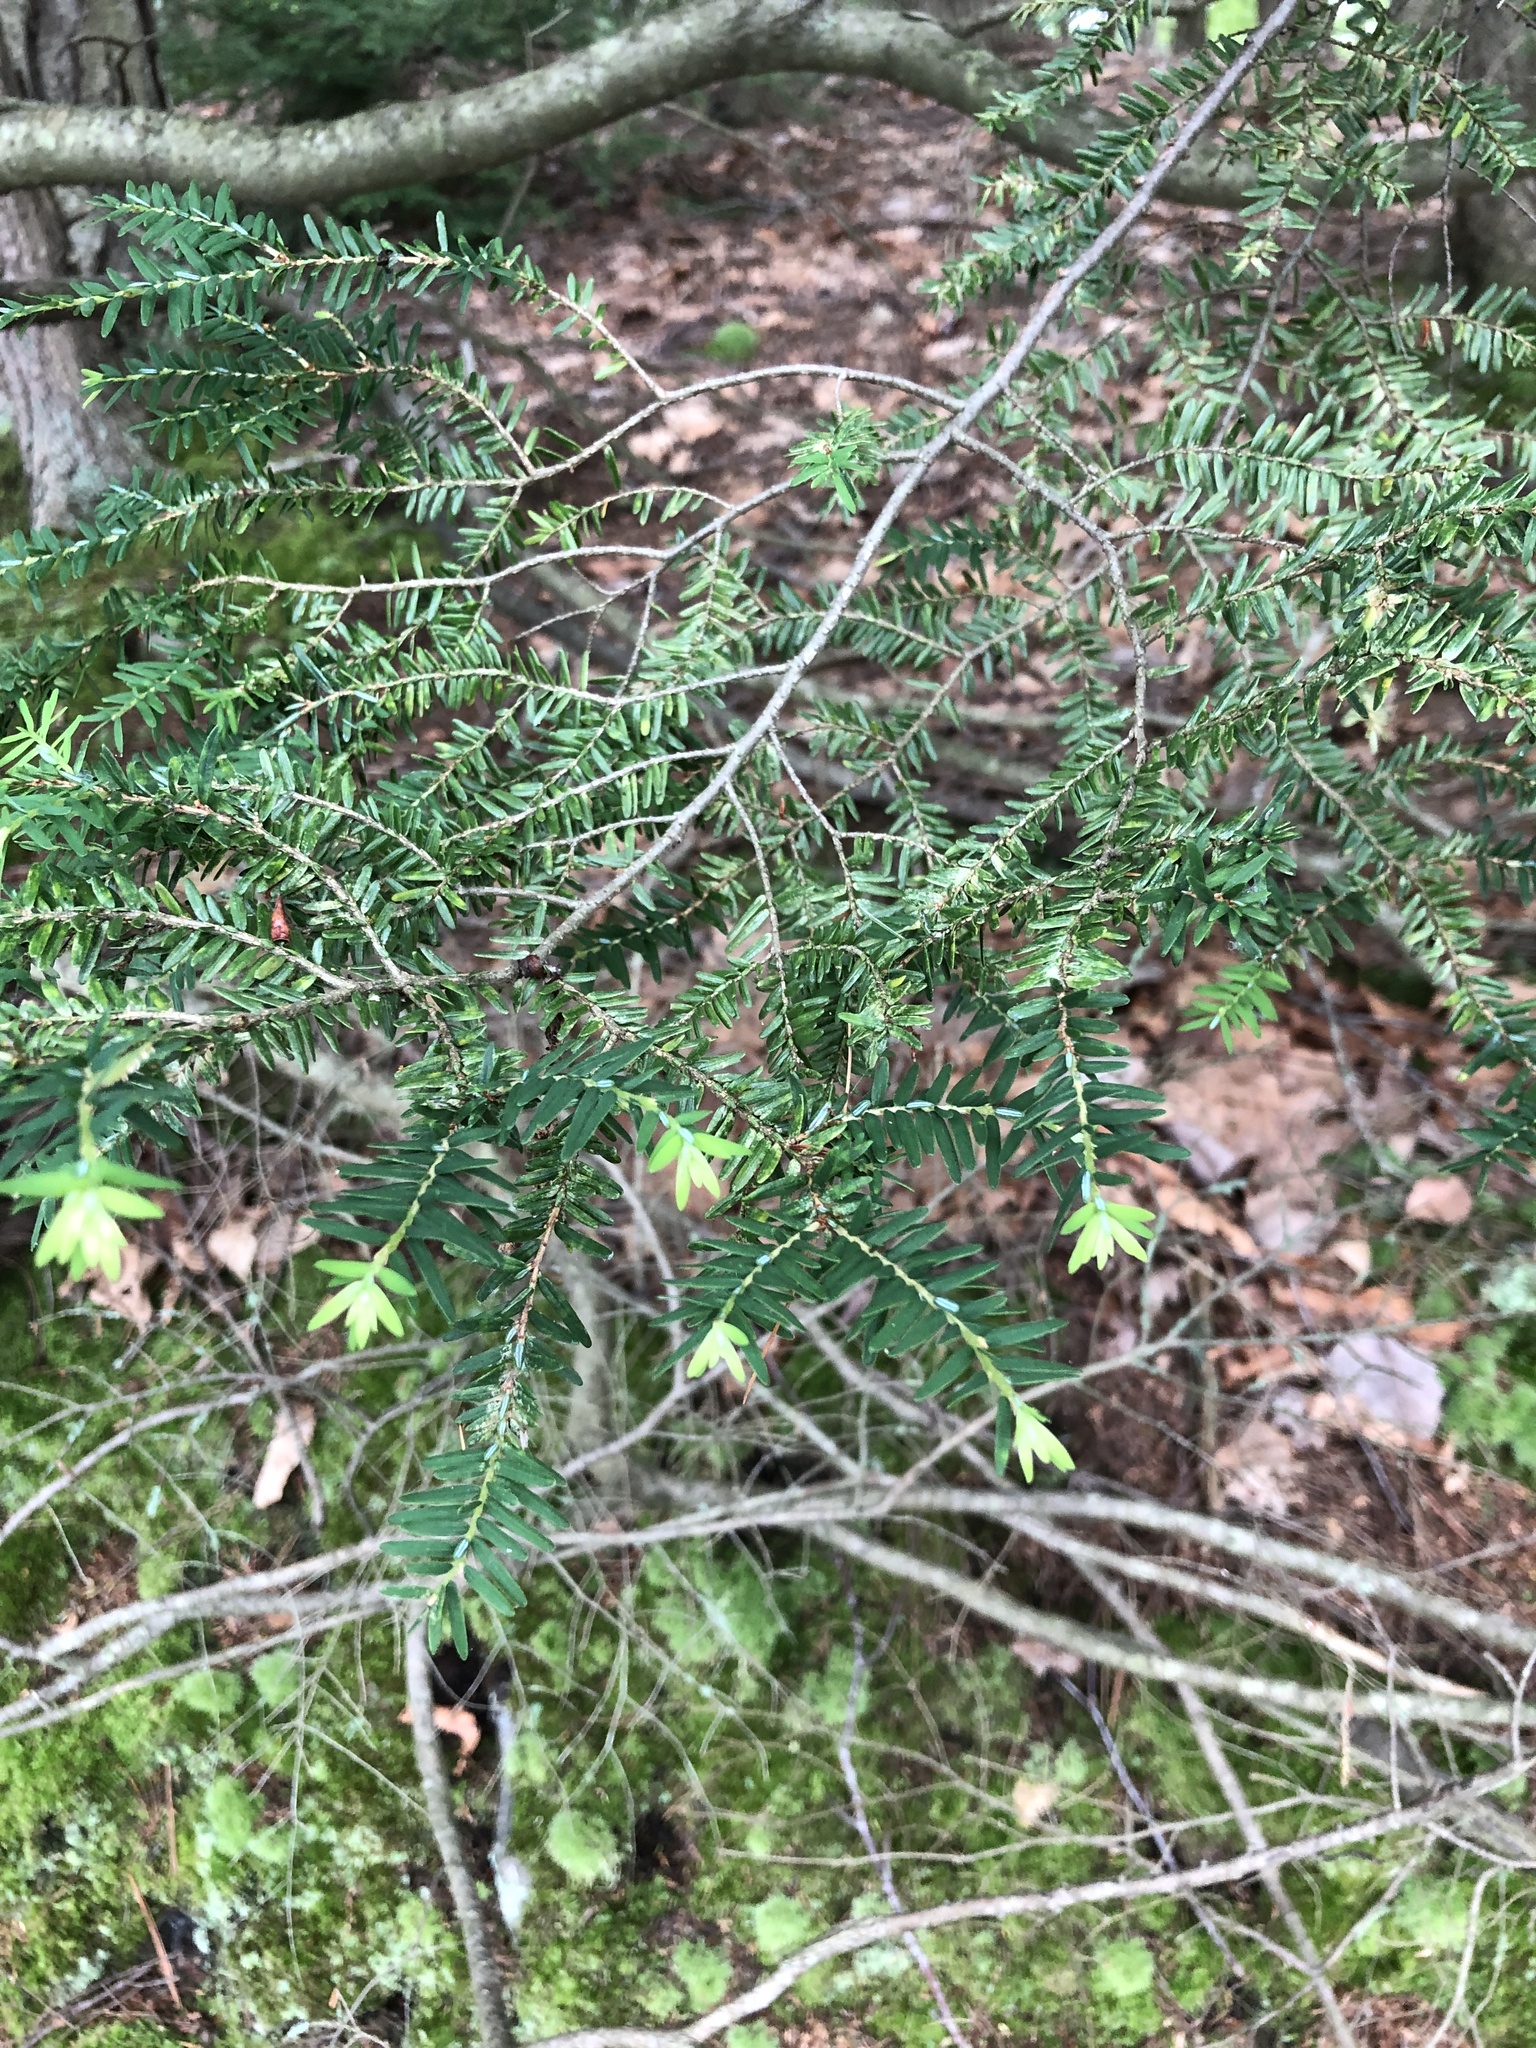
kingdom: Plantae
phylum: Tracheophyta
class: Pinopsida
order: Pinales
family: Pinaceae
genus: Tsuga
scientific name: Tsuga canadensis
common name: Eastern hemlock
